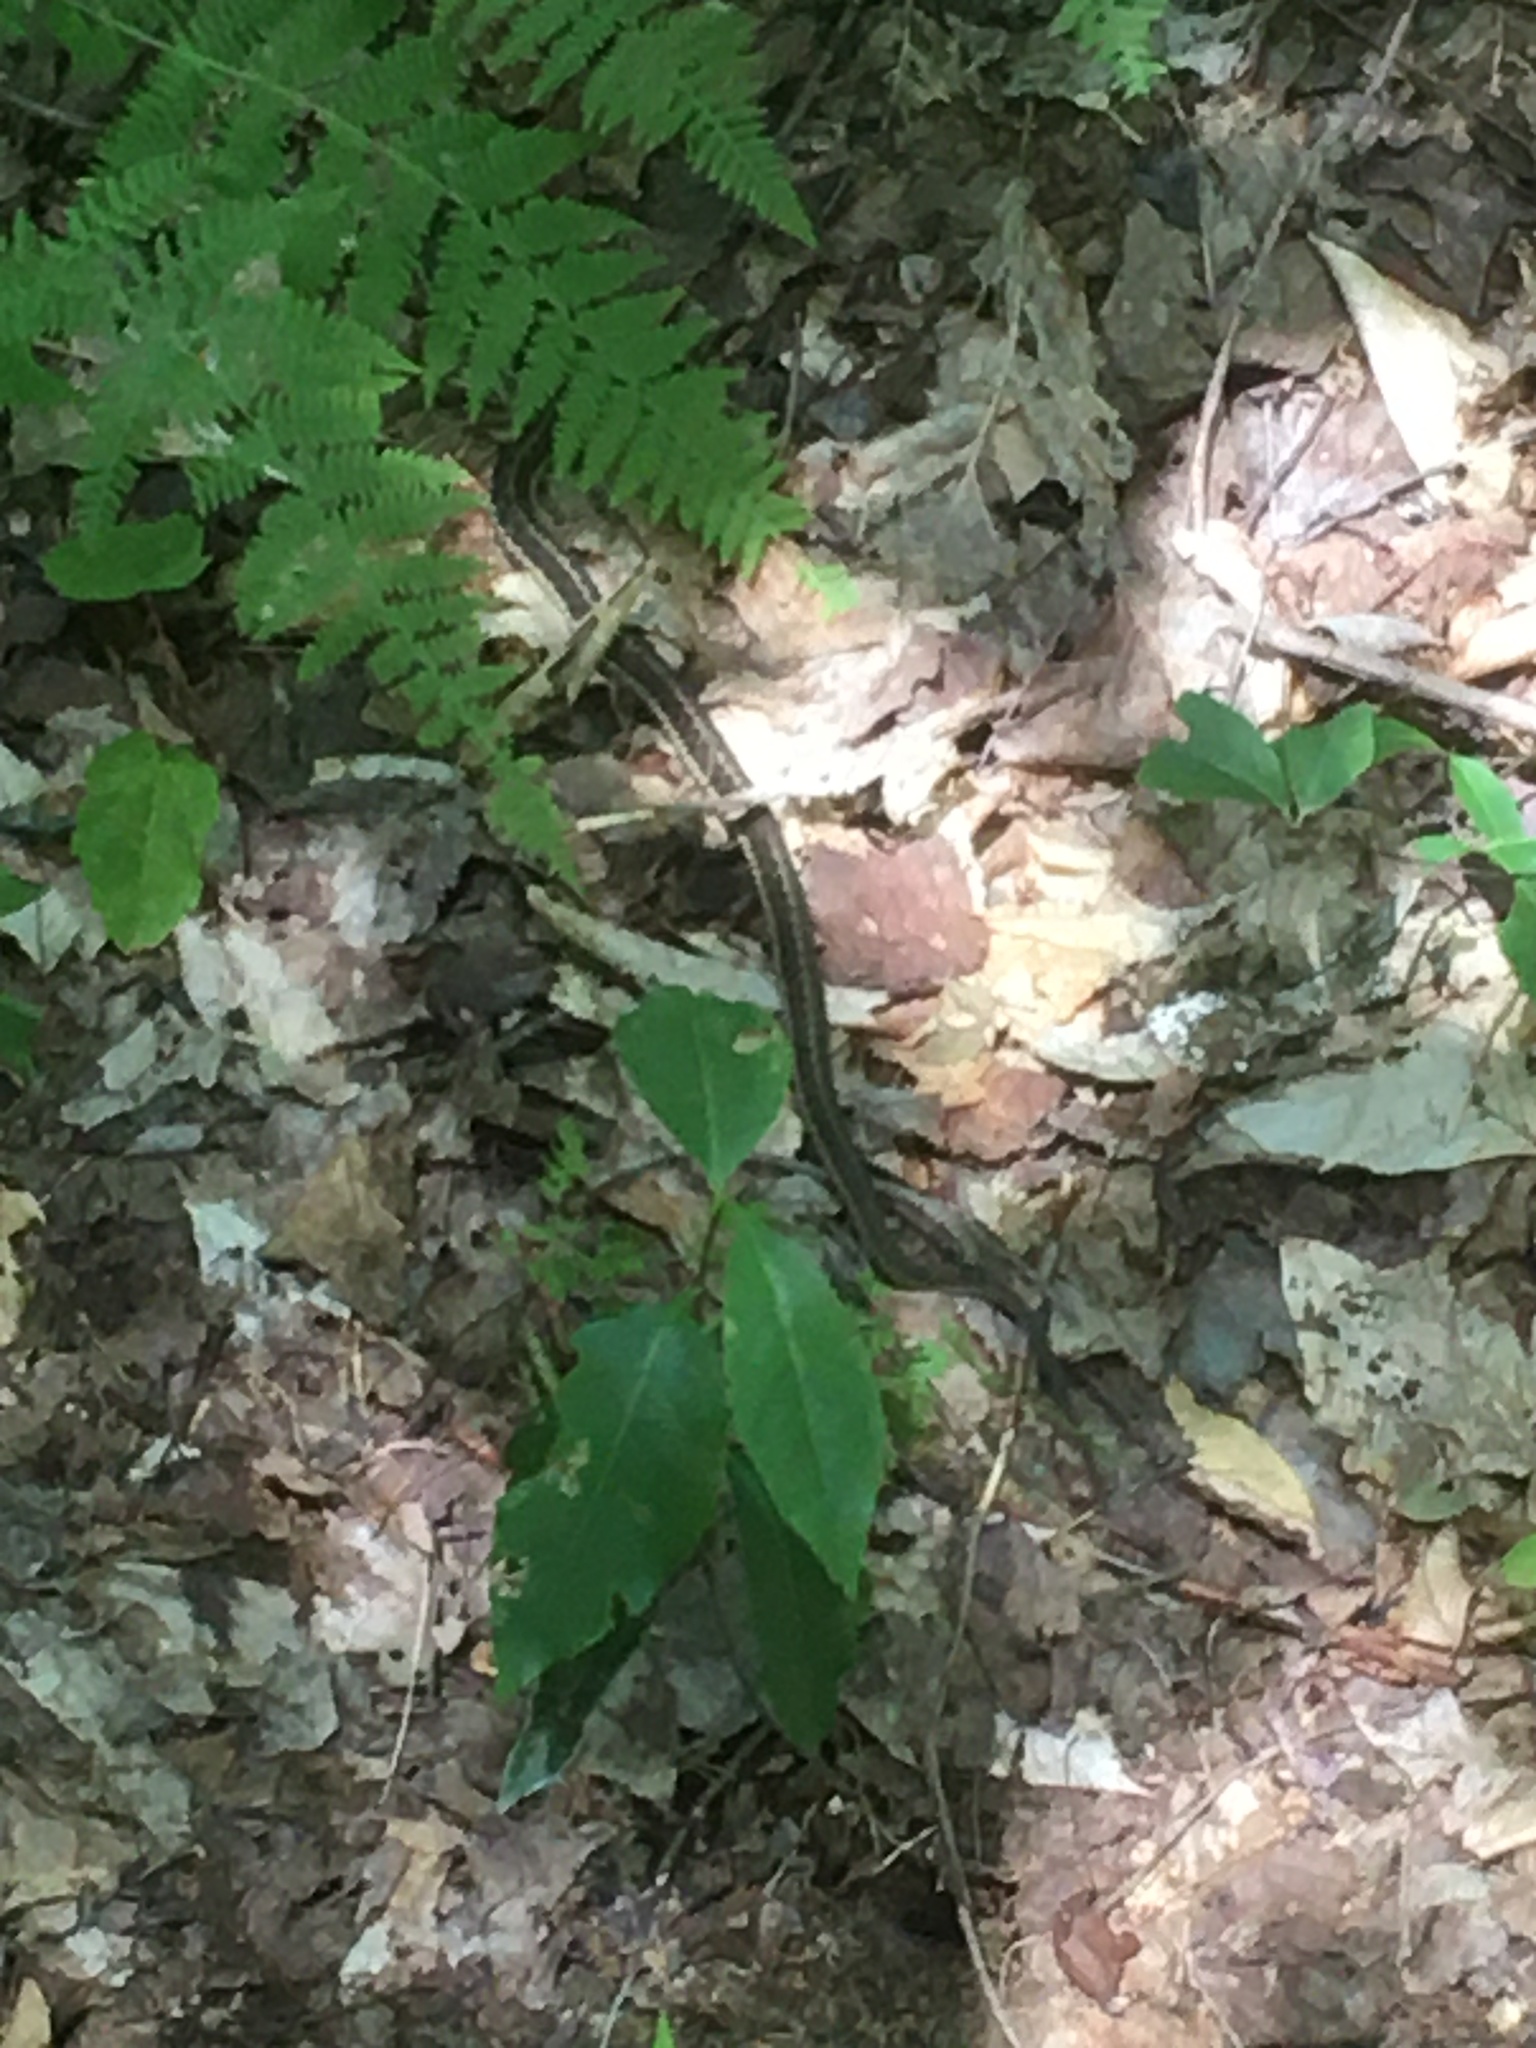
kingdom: Animalia
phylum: Chordata
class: Squamata
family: Colubridae
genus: Thamnophis
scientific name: Thamnophis sirtalis
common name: Common garter snake
